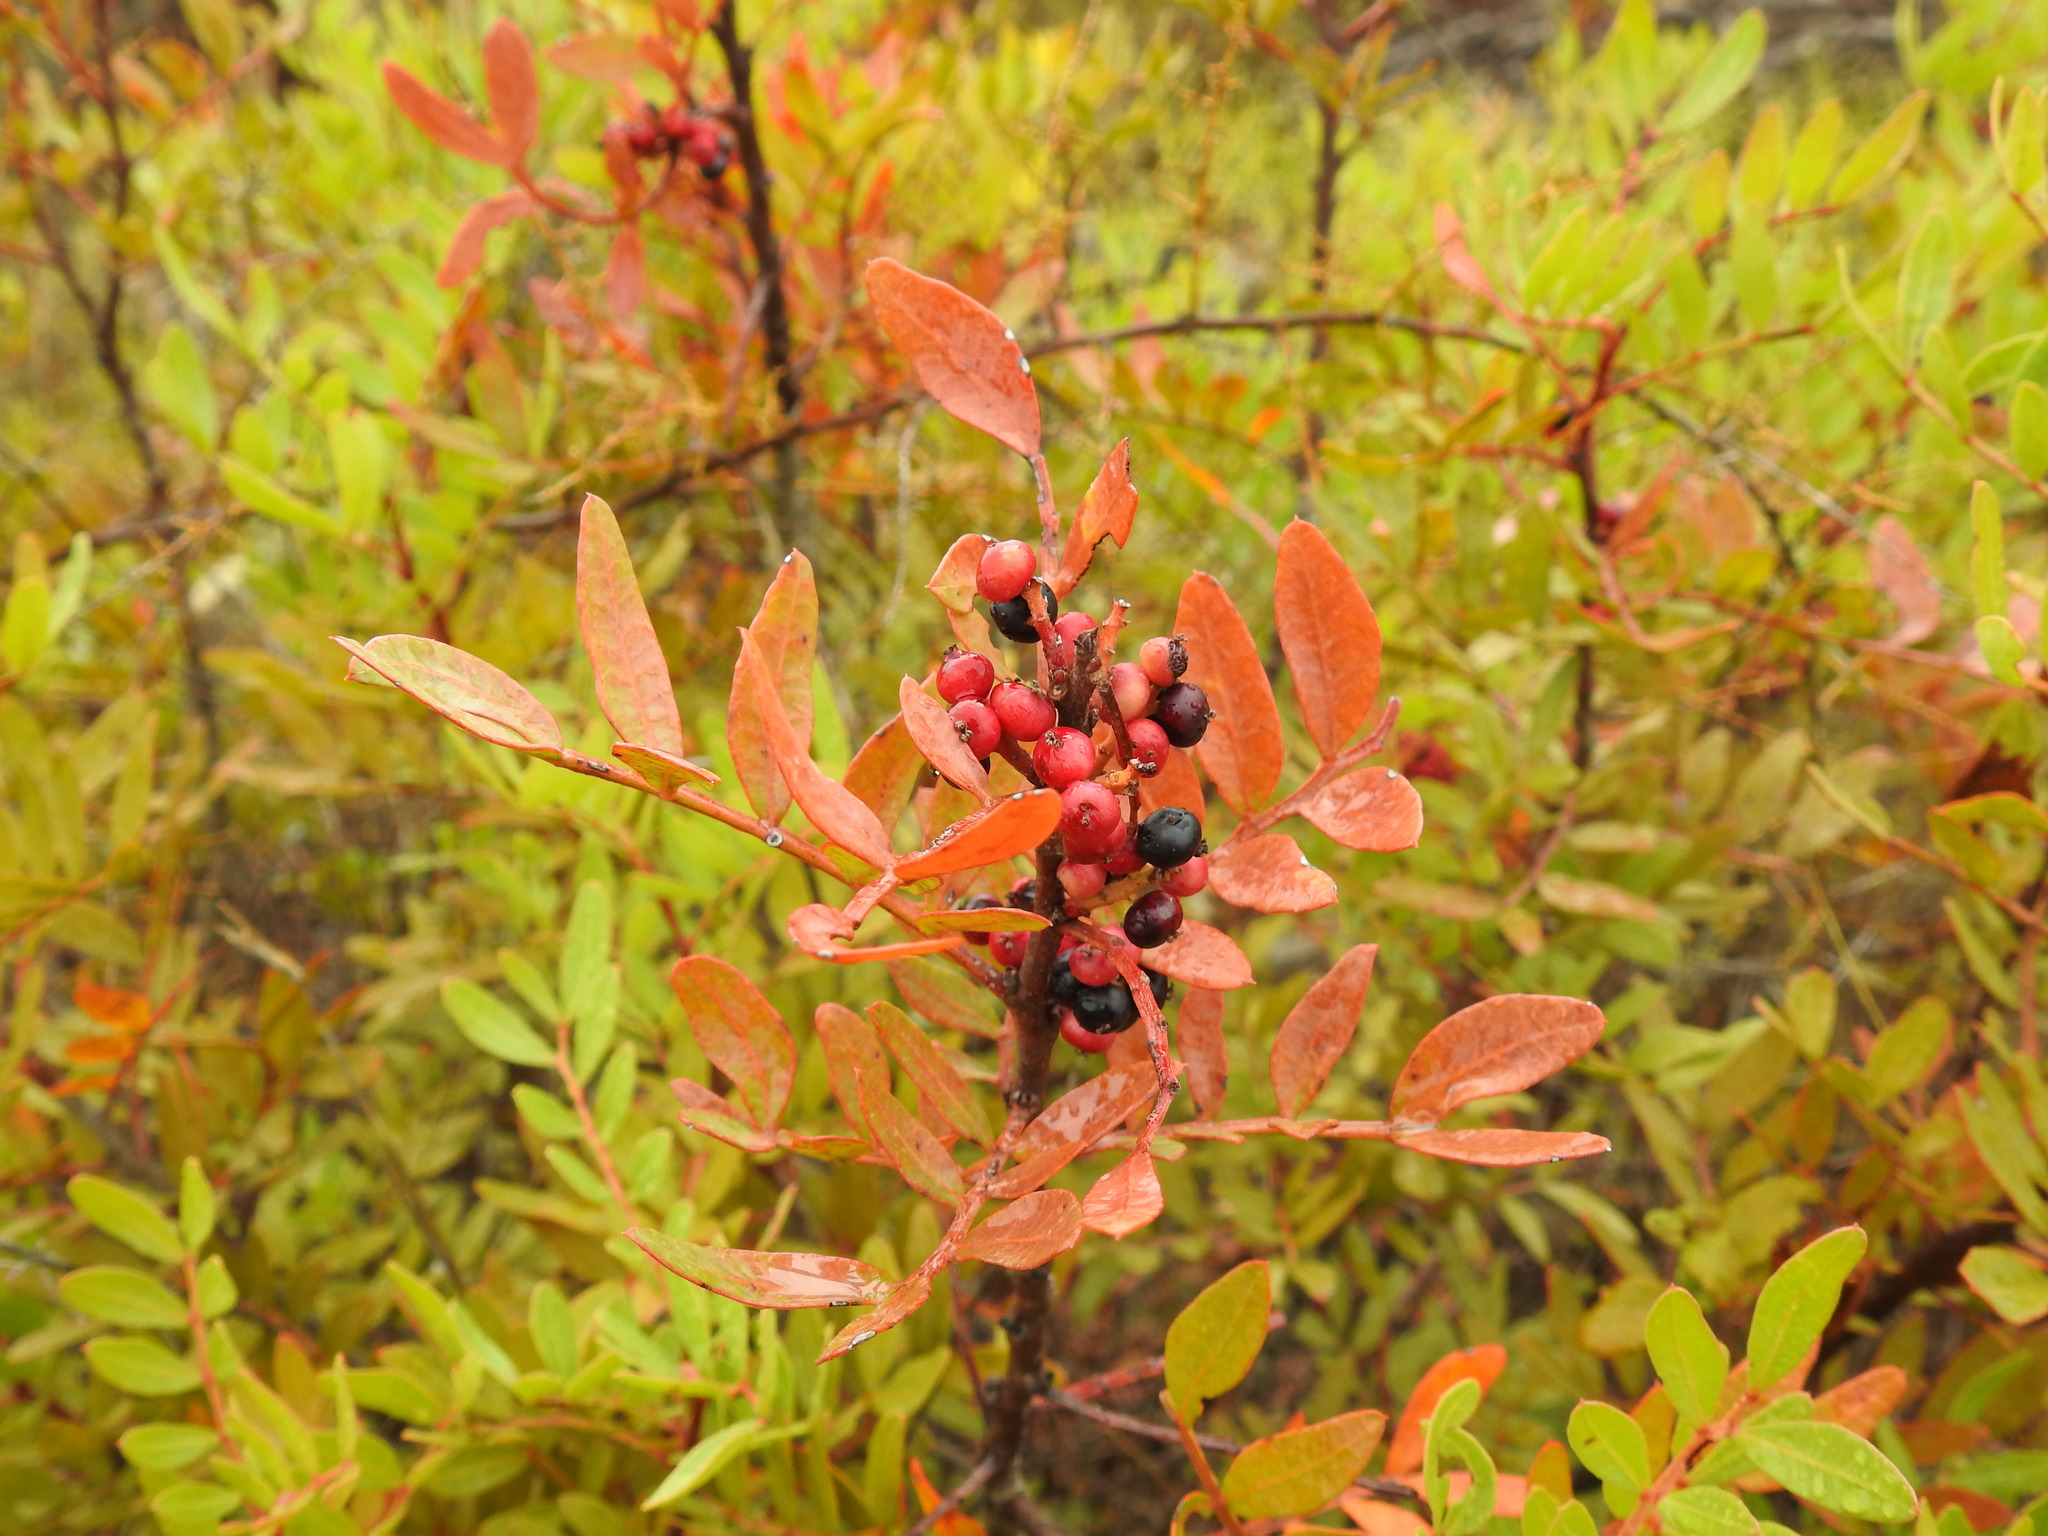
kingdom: Plantae
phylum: Tracheophyta
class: Magnoliopsida
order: Sapindales
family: Anacardiaceae
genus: Pistacia
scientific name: Pistacia lentiscus
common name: Lentisk
